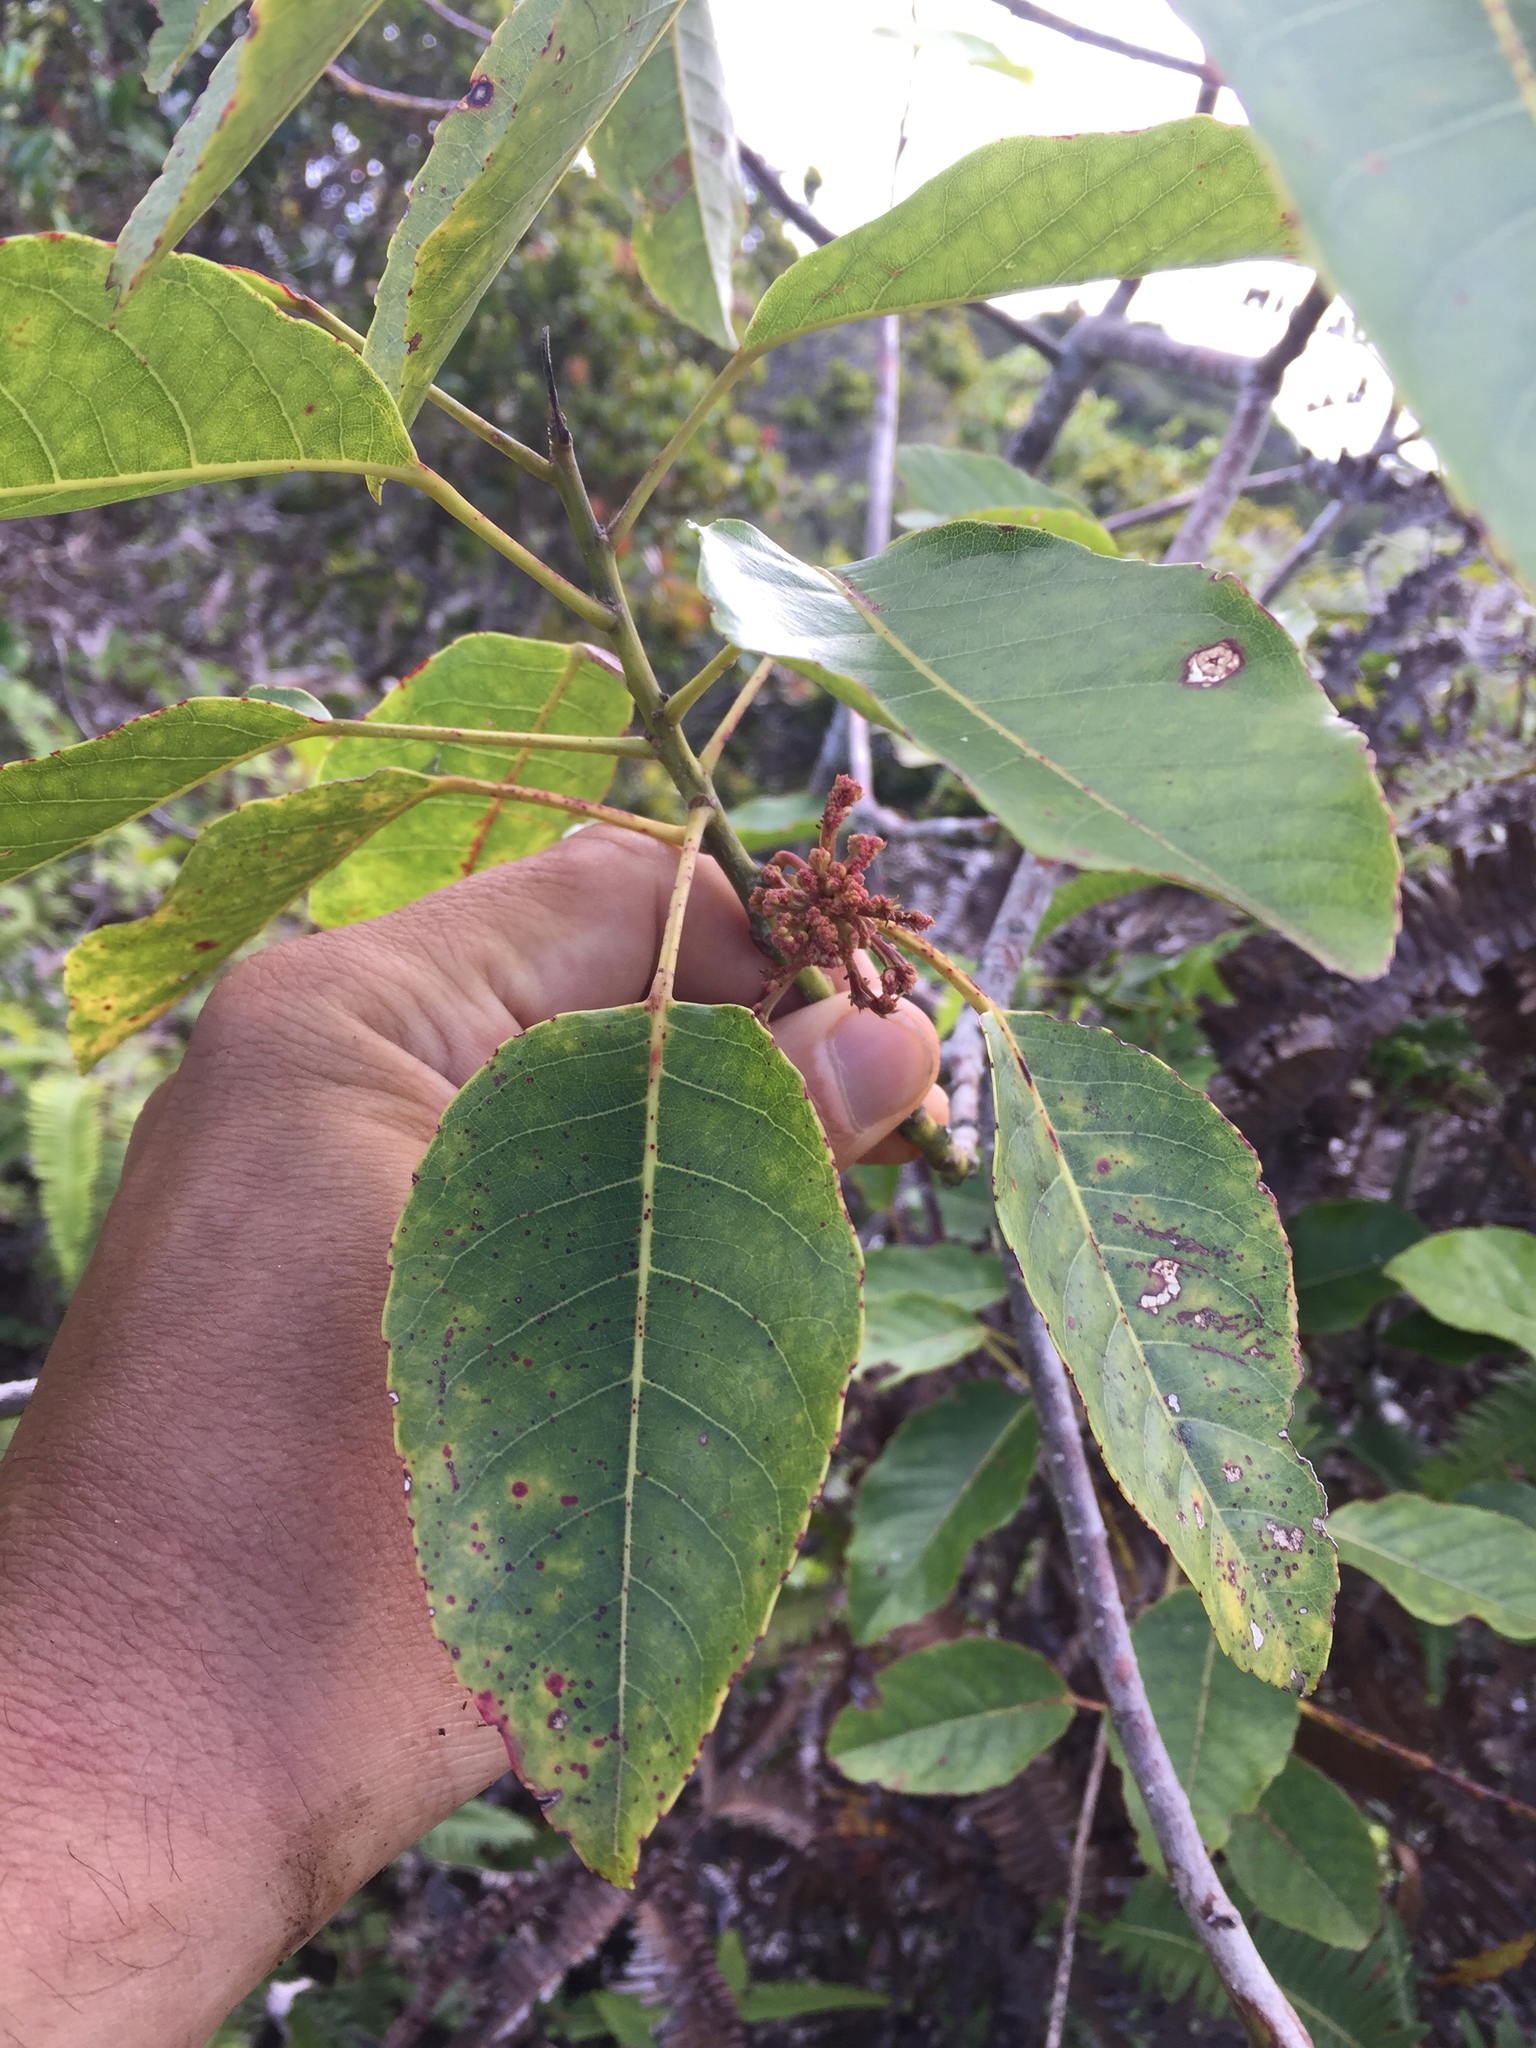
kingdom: Plantae
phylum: Tracheophyta
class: Magnoliopsida
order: Oxalidales
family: Elaeocarpaceae
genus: Elaeocarpus
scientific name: Elaeocarpus bifidus
